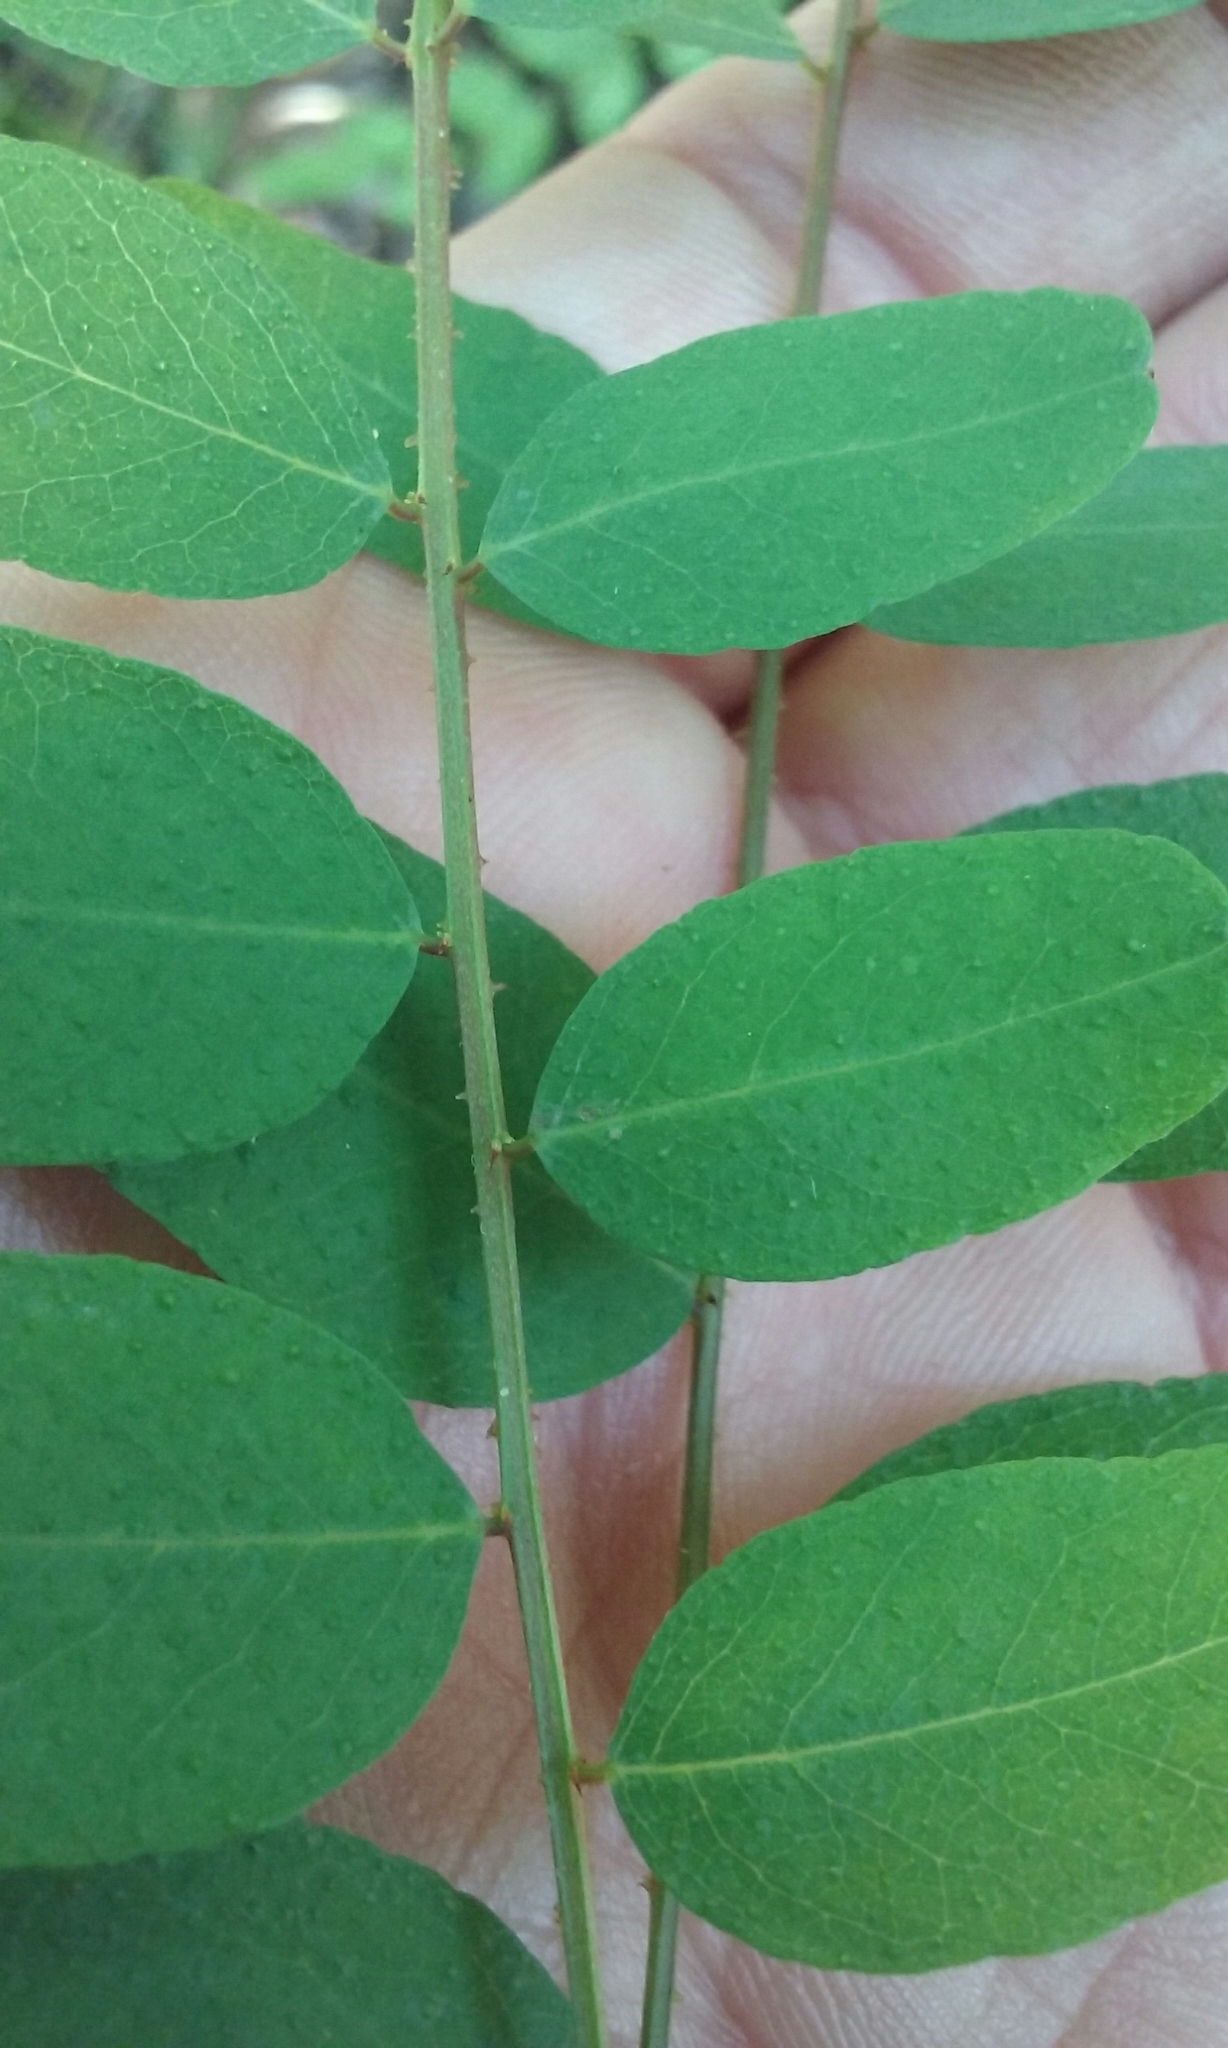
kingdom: Plantae
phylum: Tracheophyta
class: Magnoliopsida
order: Fabales
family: Fabaceae
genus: Amorpha
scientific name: Amorpha californica
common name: California indigobush
